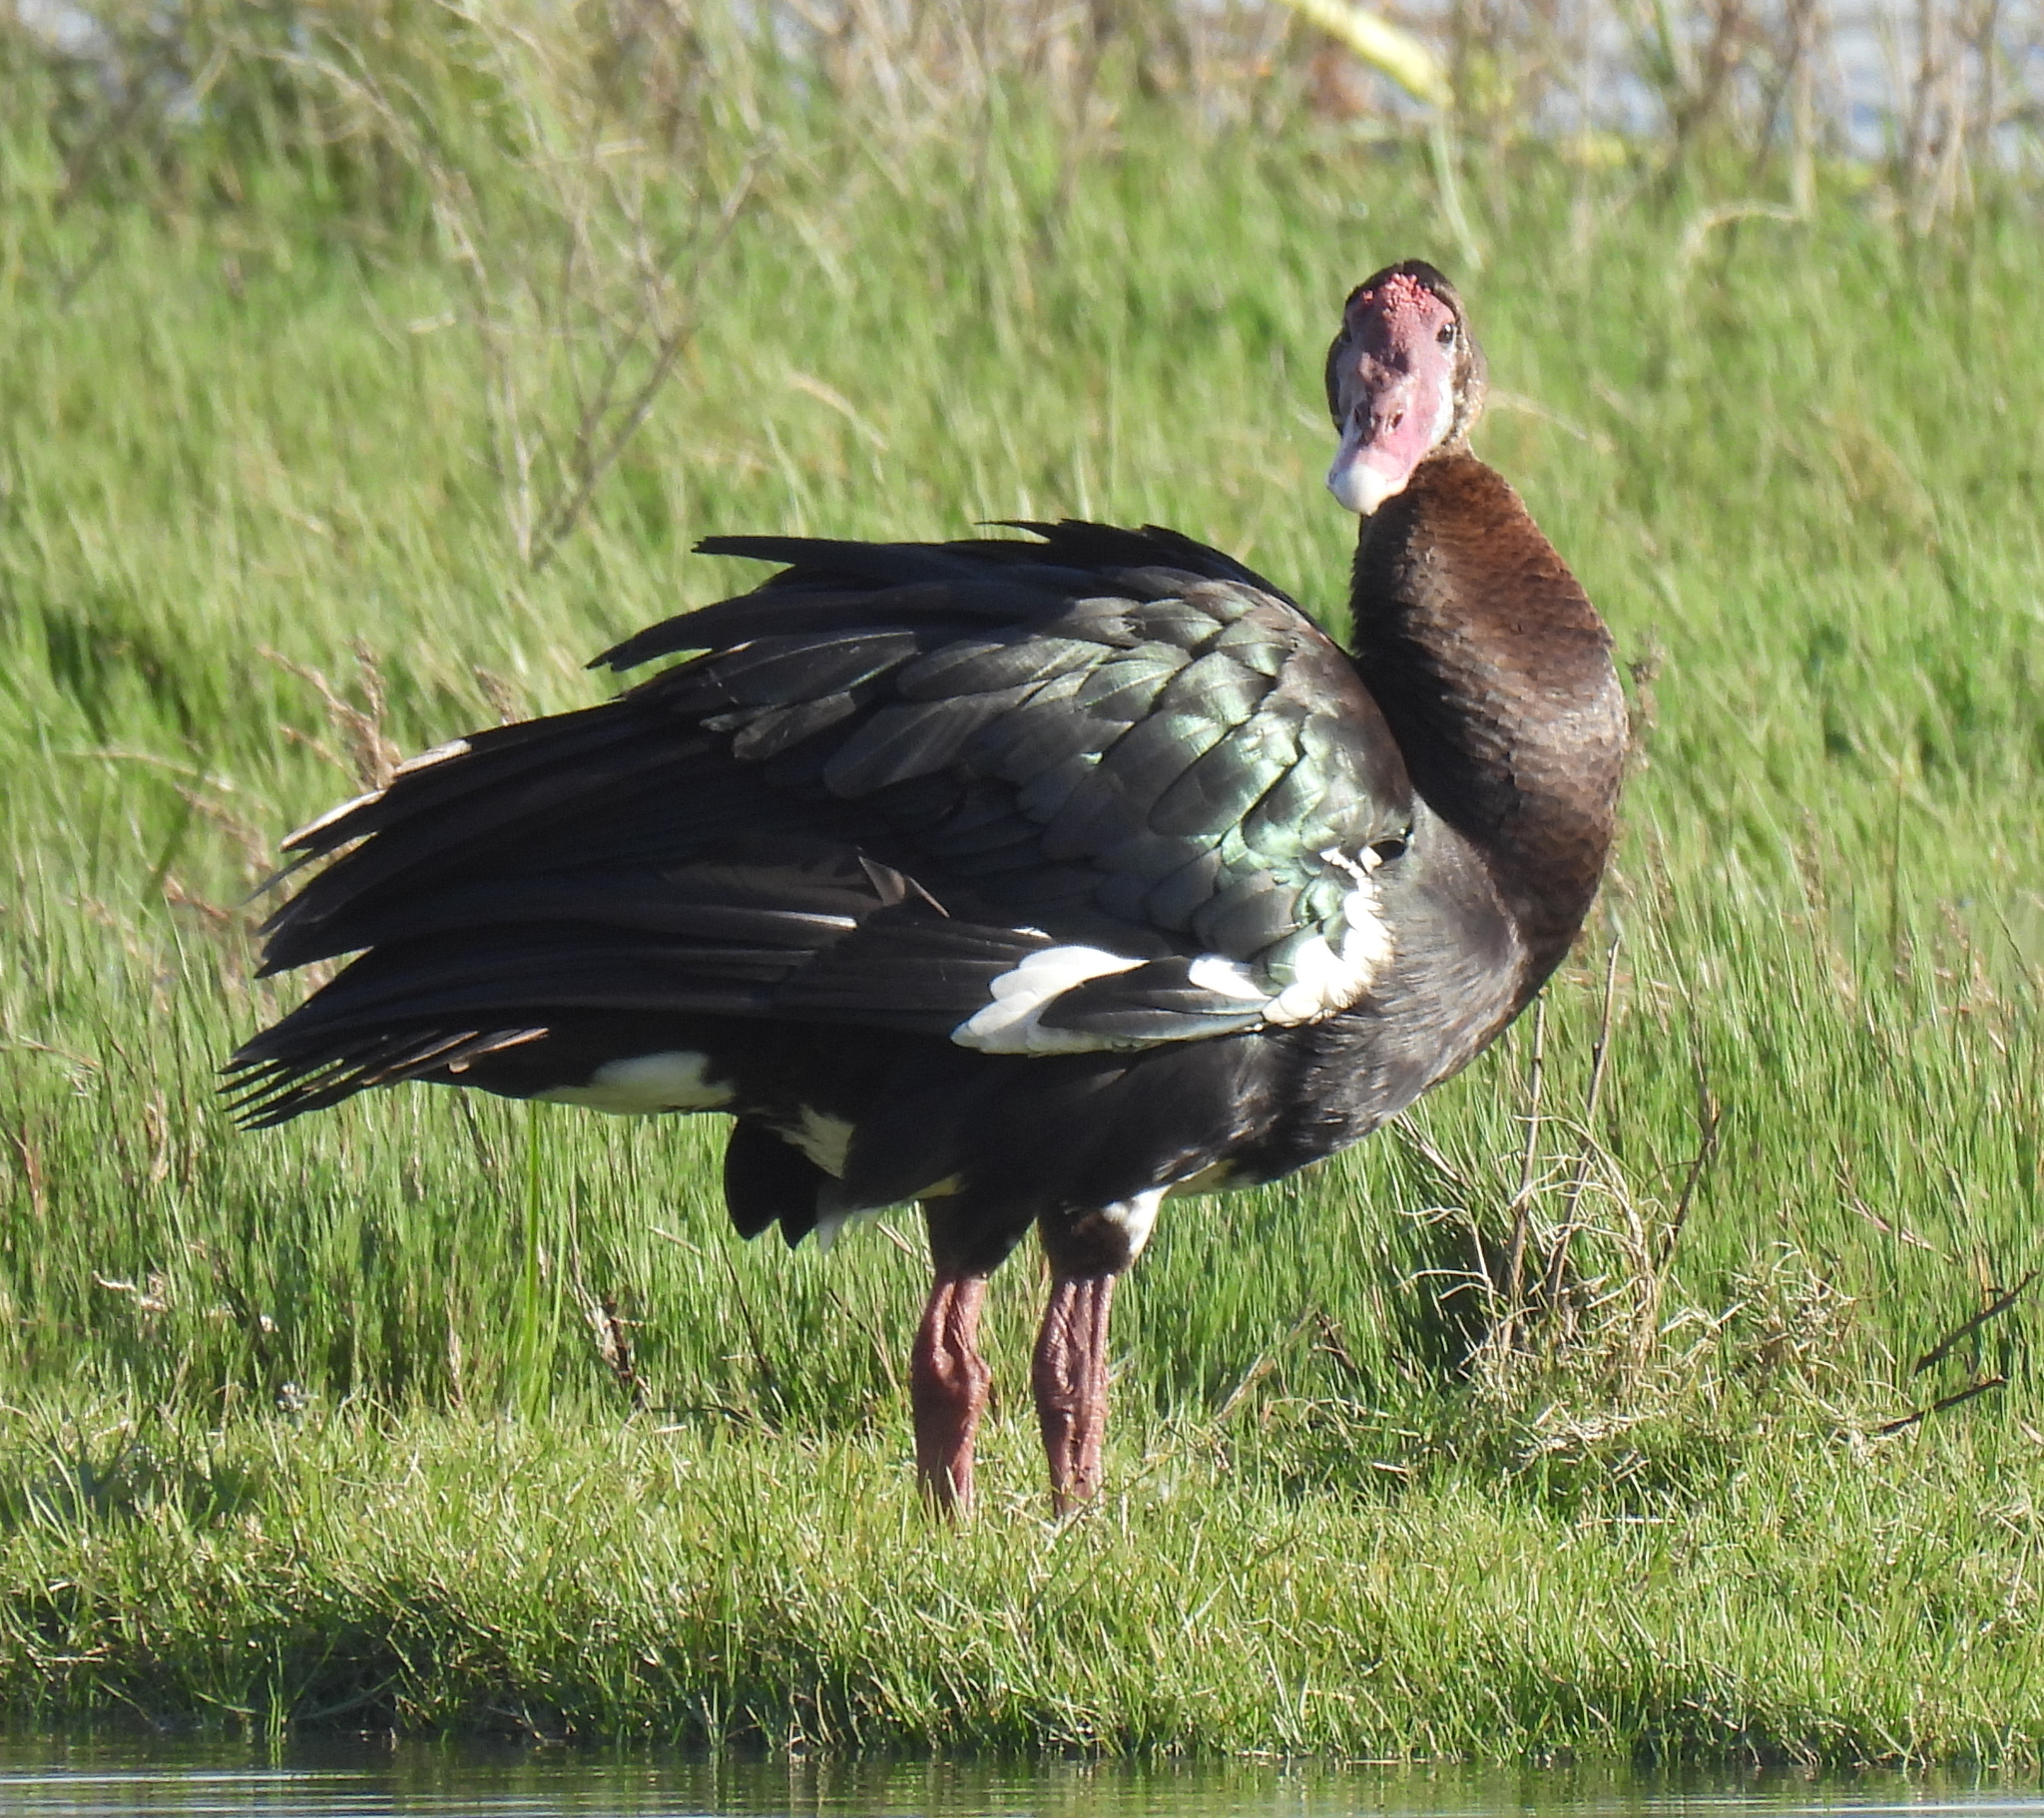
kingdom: Animalia
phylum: Chordata
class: Aves
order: Anseriformes
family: Anatidae
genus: Plectropterus
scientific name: Plectropterus gambensis
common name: Spur-winged goose
